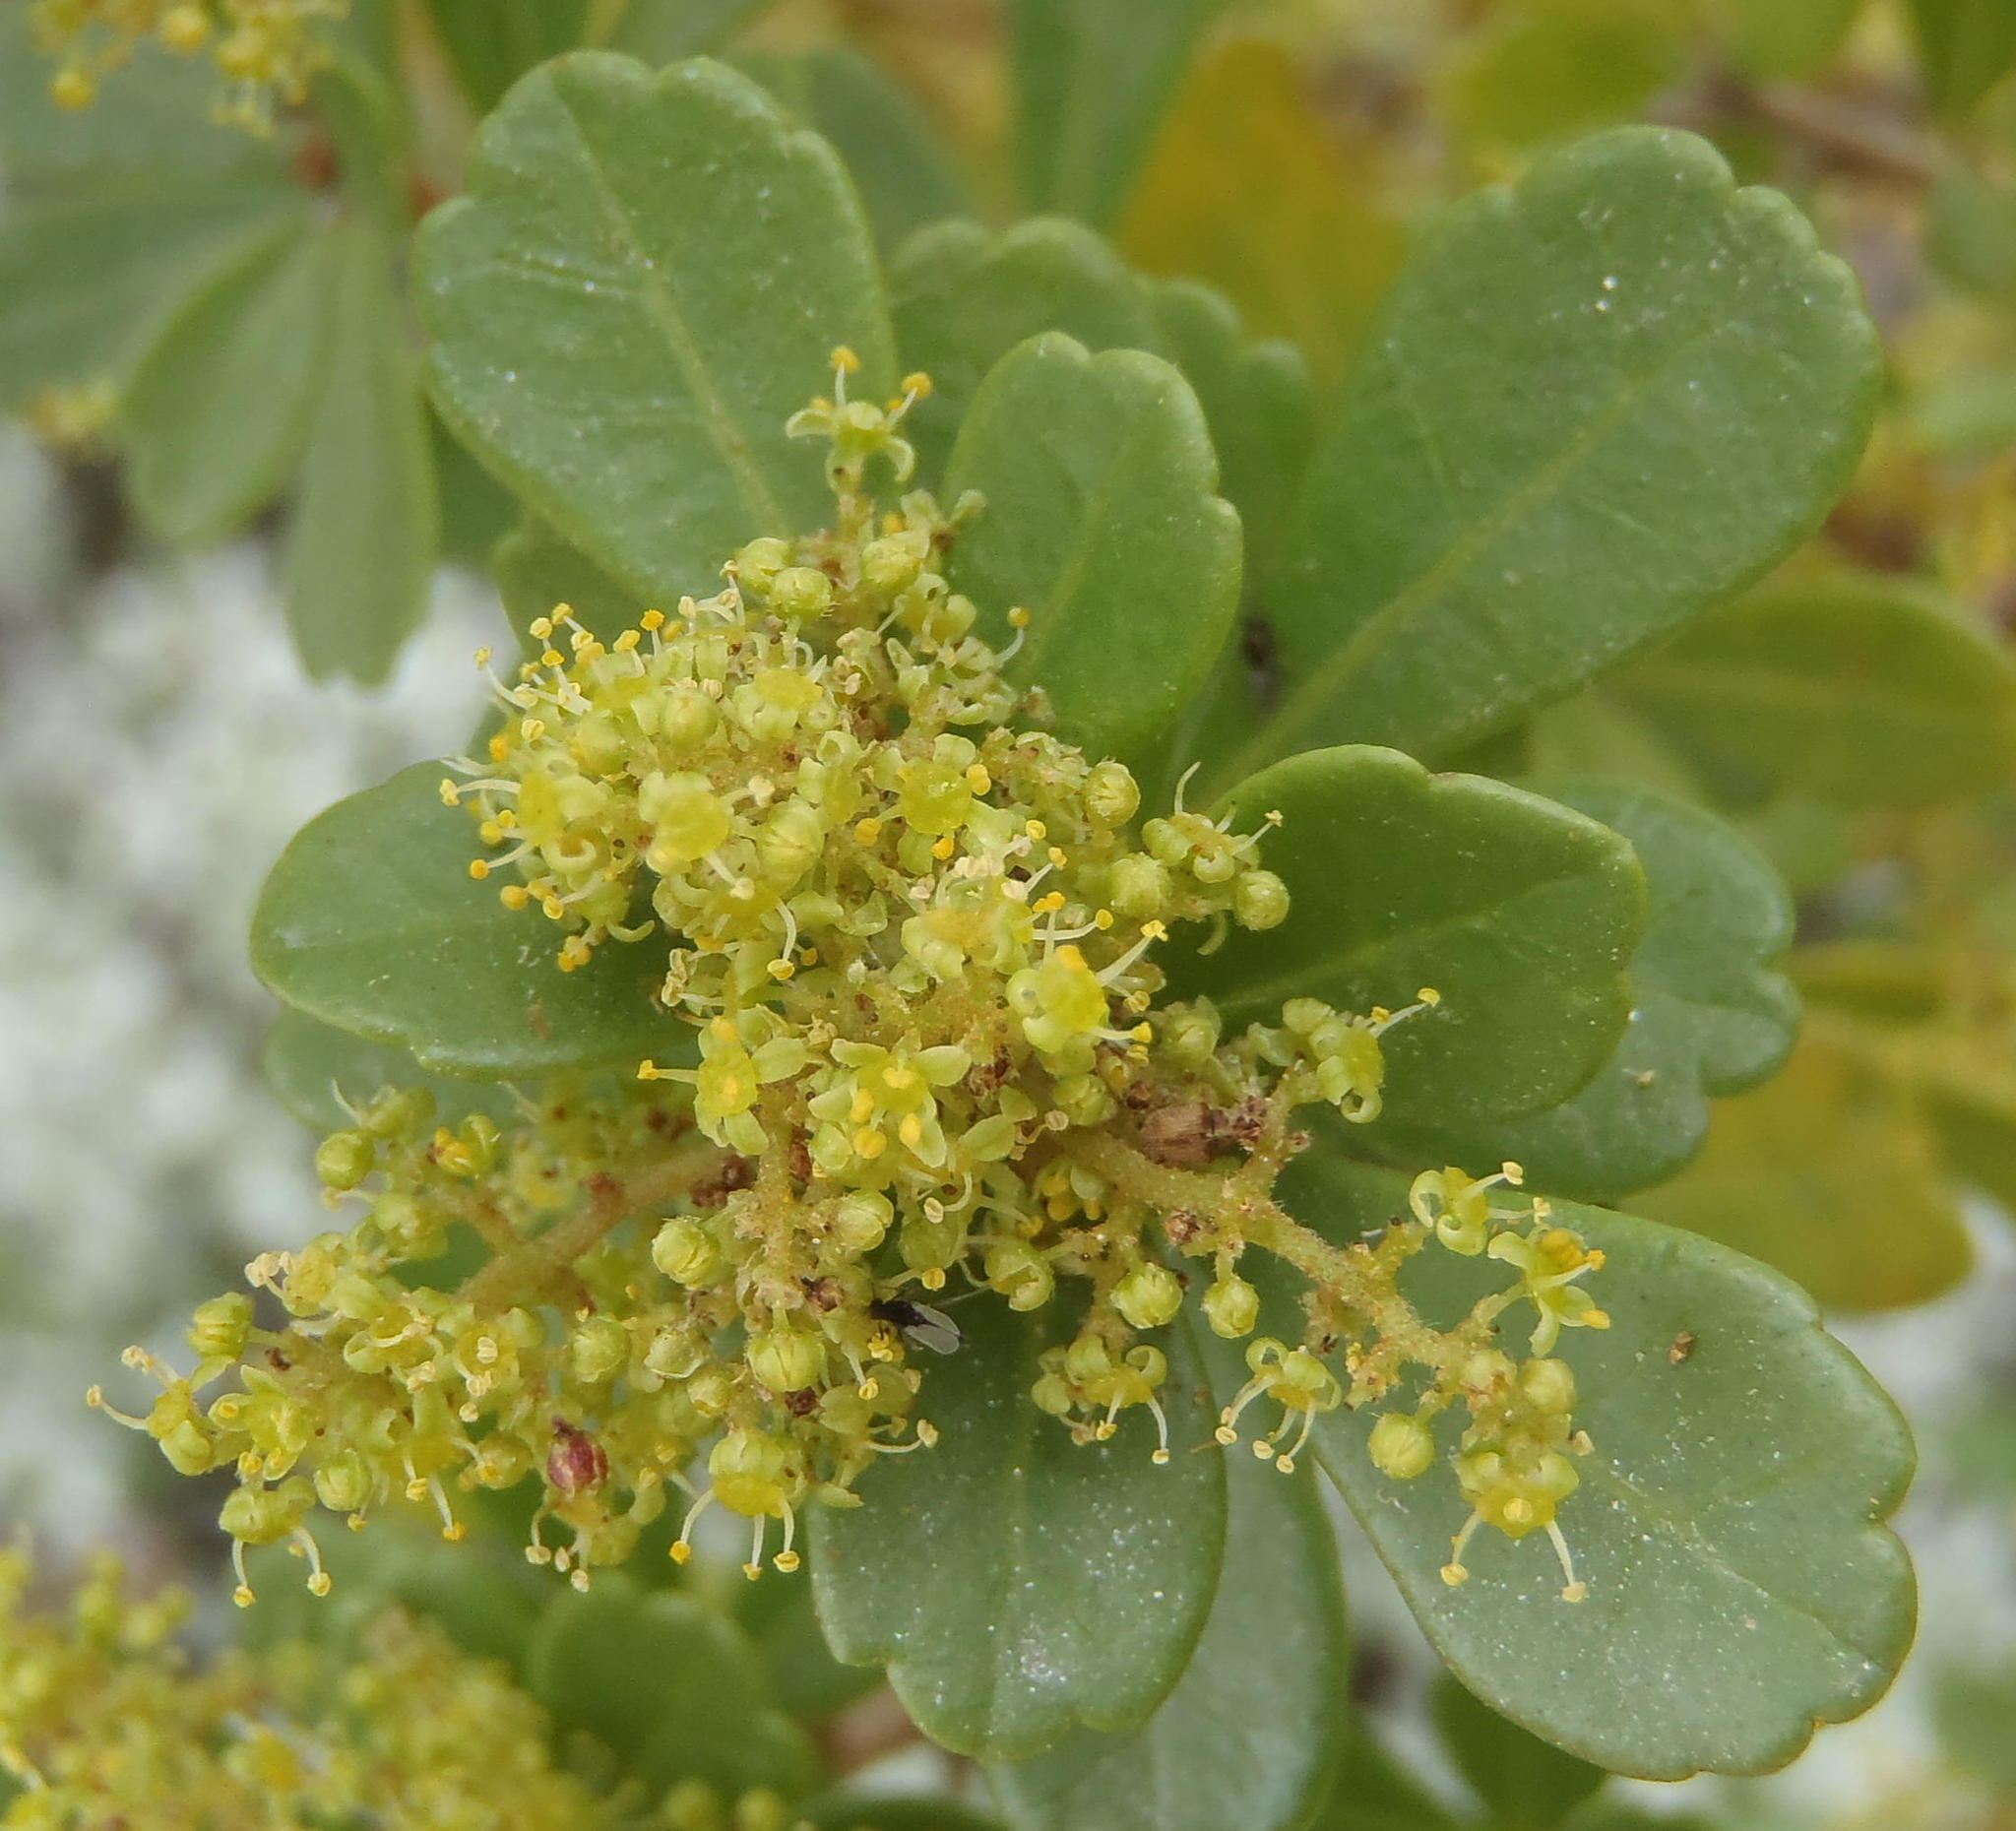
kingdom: Plantae
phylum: Tracheophyta
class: Magnoliopsida
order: Sapindales
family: Anacardiaceae
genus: Searsia
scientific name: Searsia crenata
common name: Crowberry
